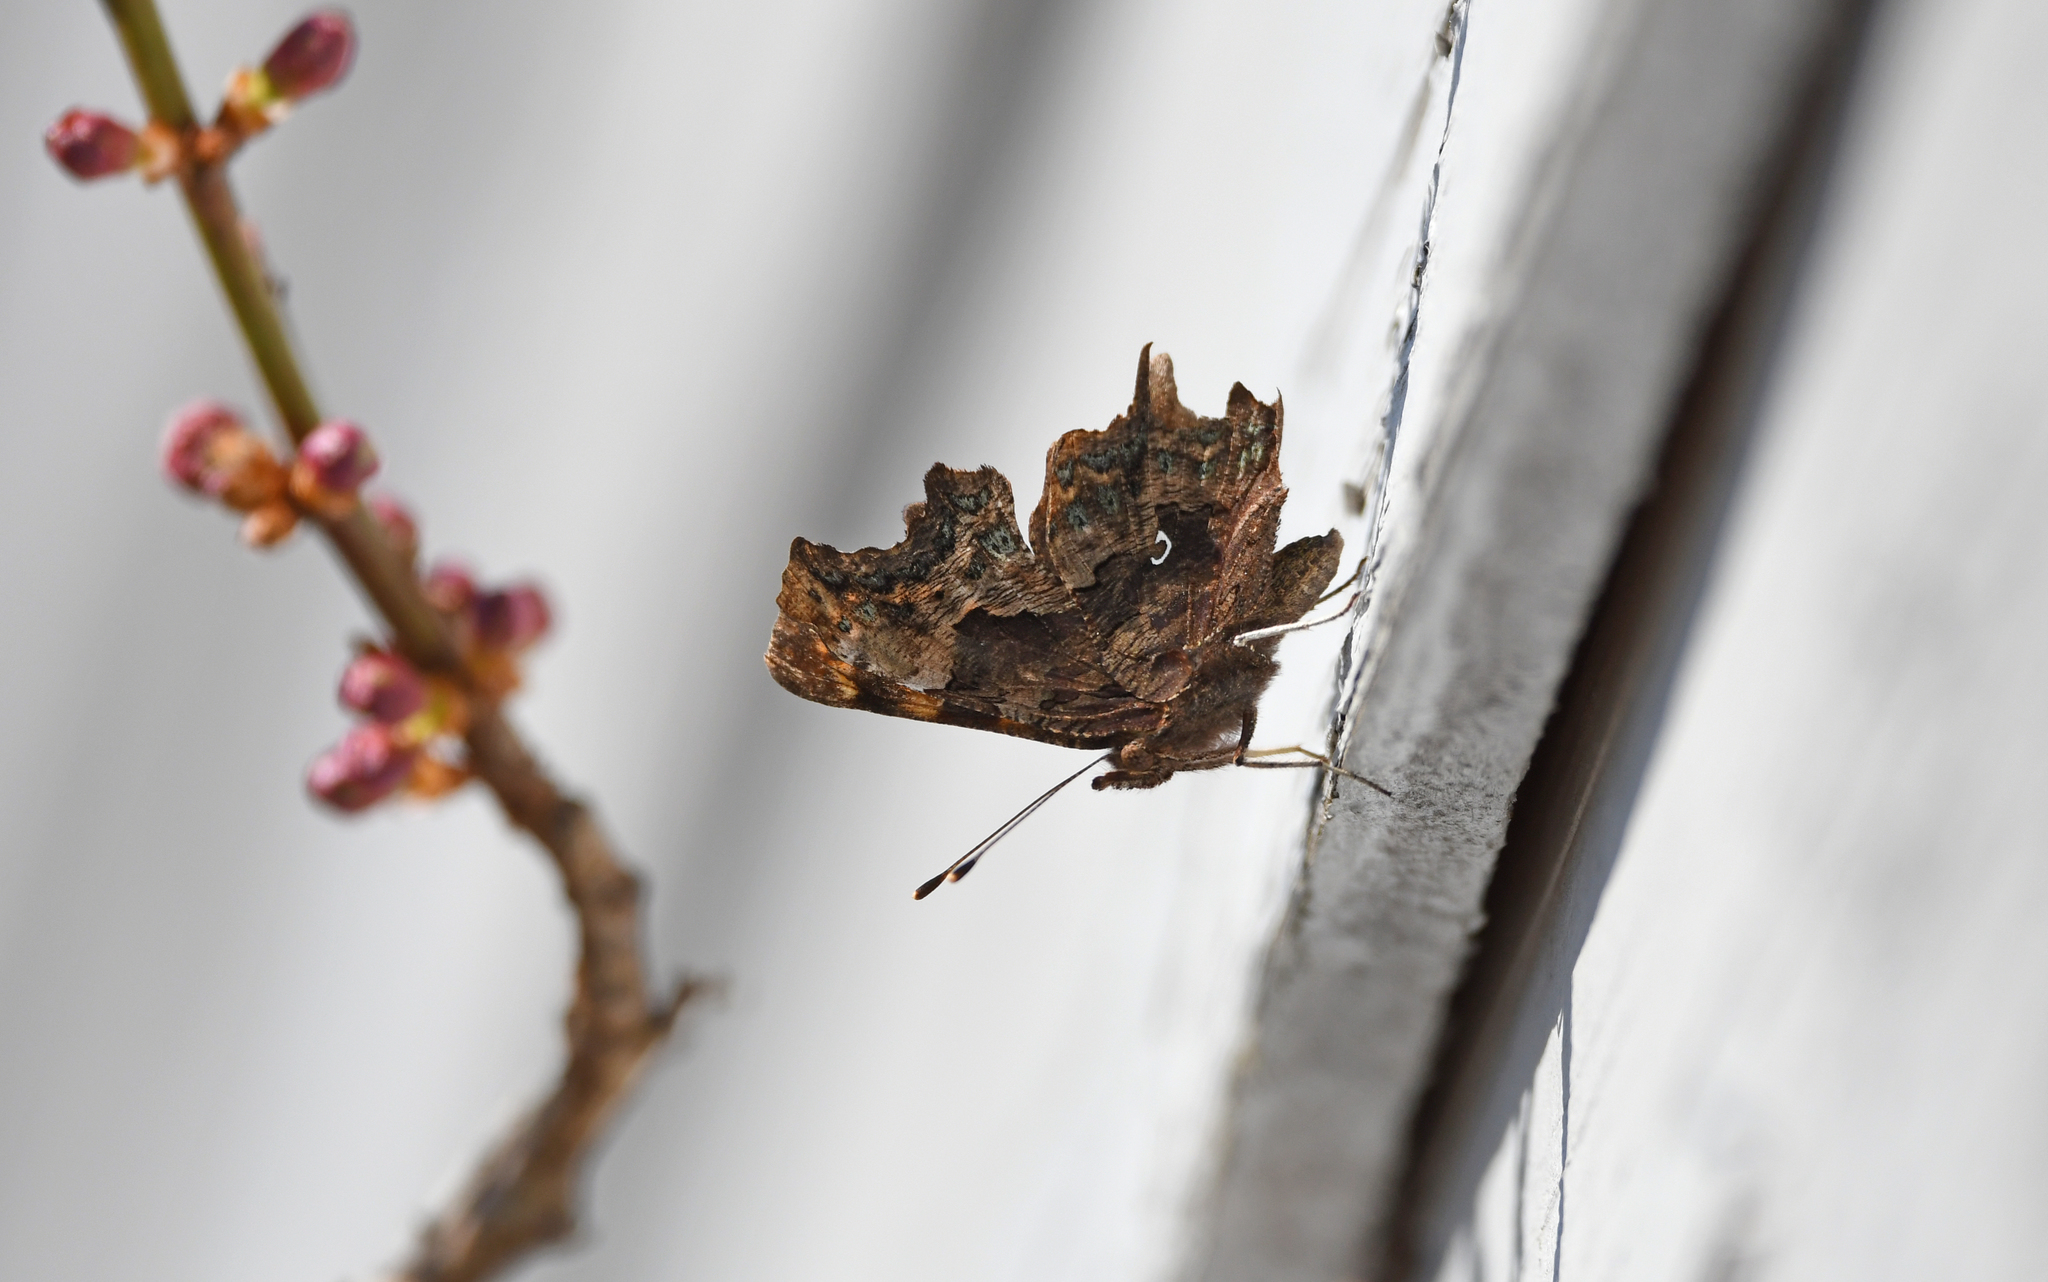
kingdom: Animalia
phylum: Arthropoda
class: Insecta
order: Lepidoptera
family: Nymphalidae
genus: Polygonia
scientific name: Polygonia c-album
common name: Comma
